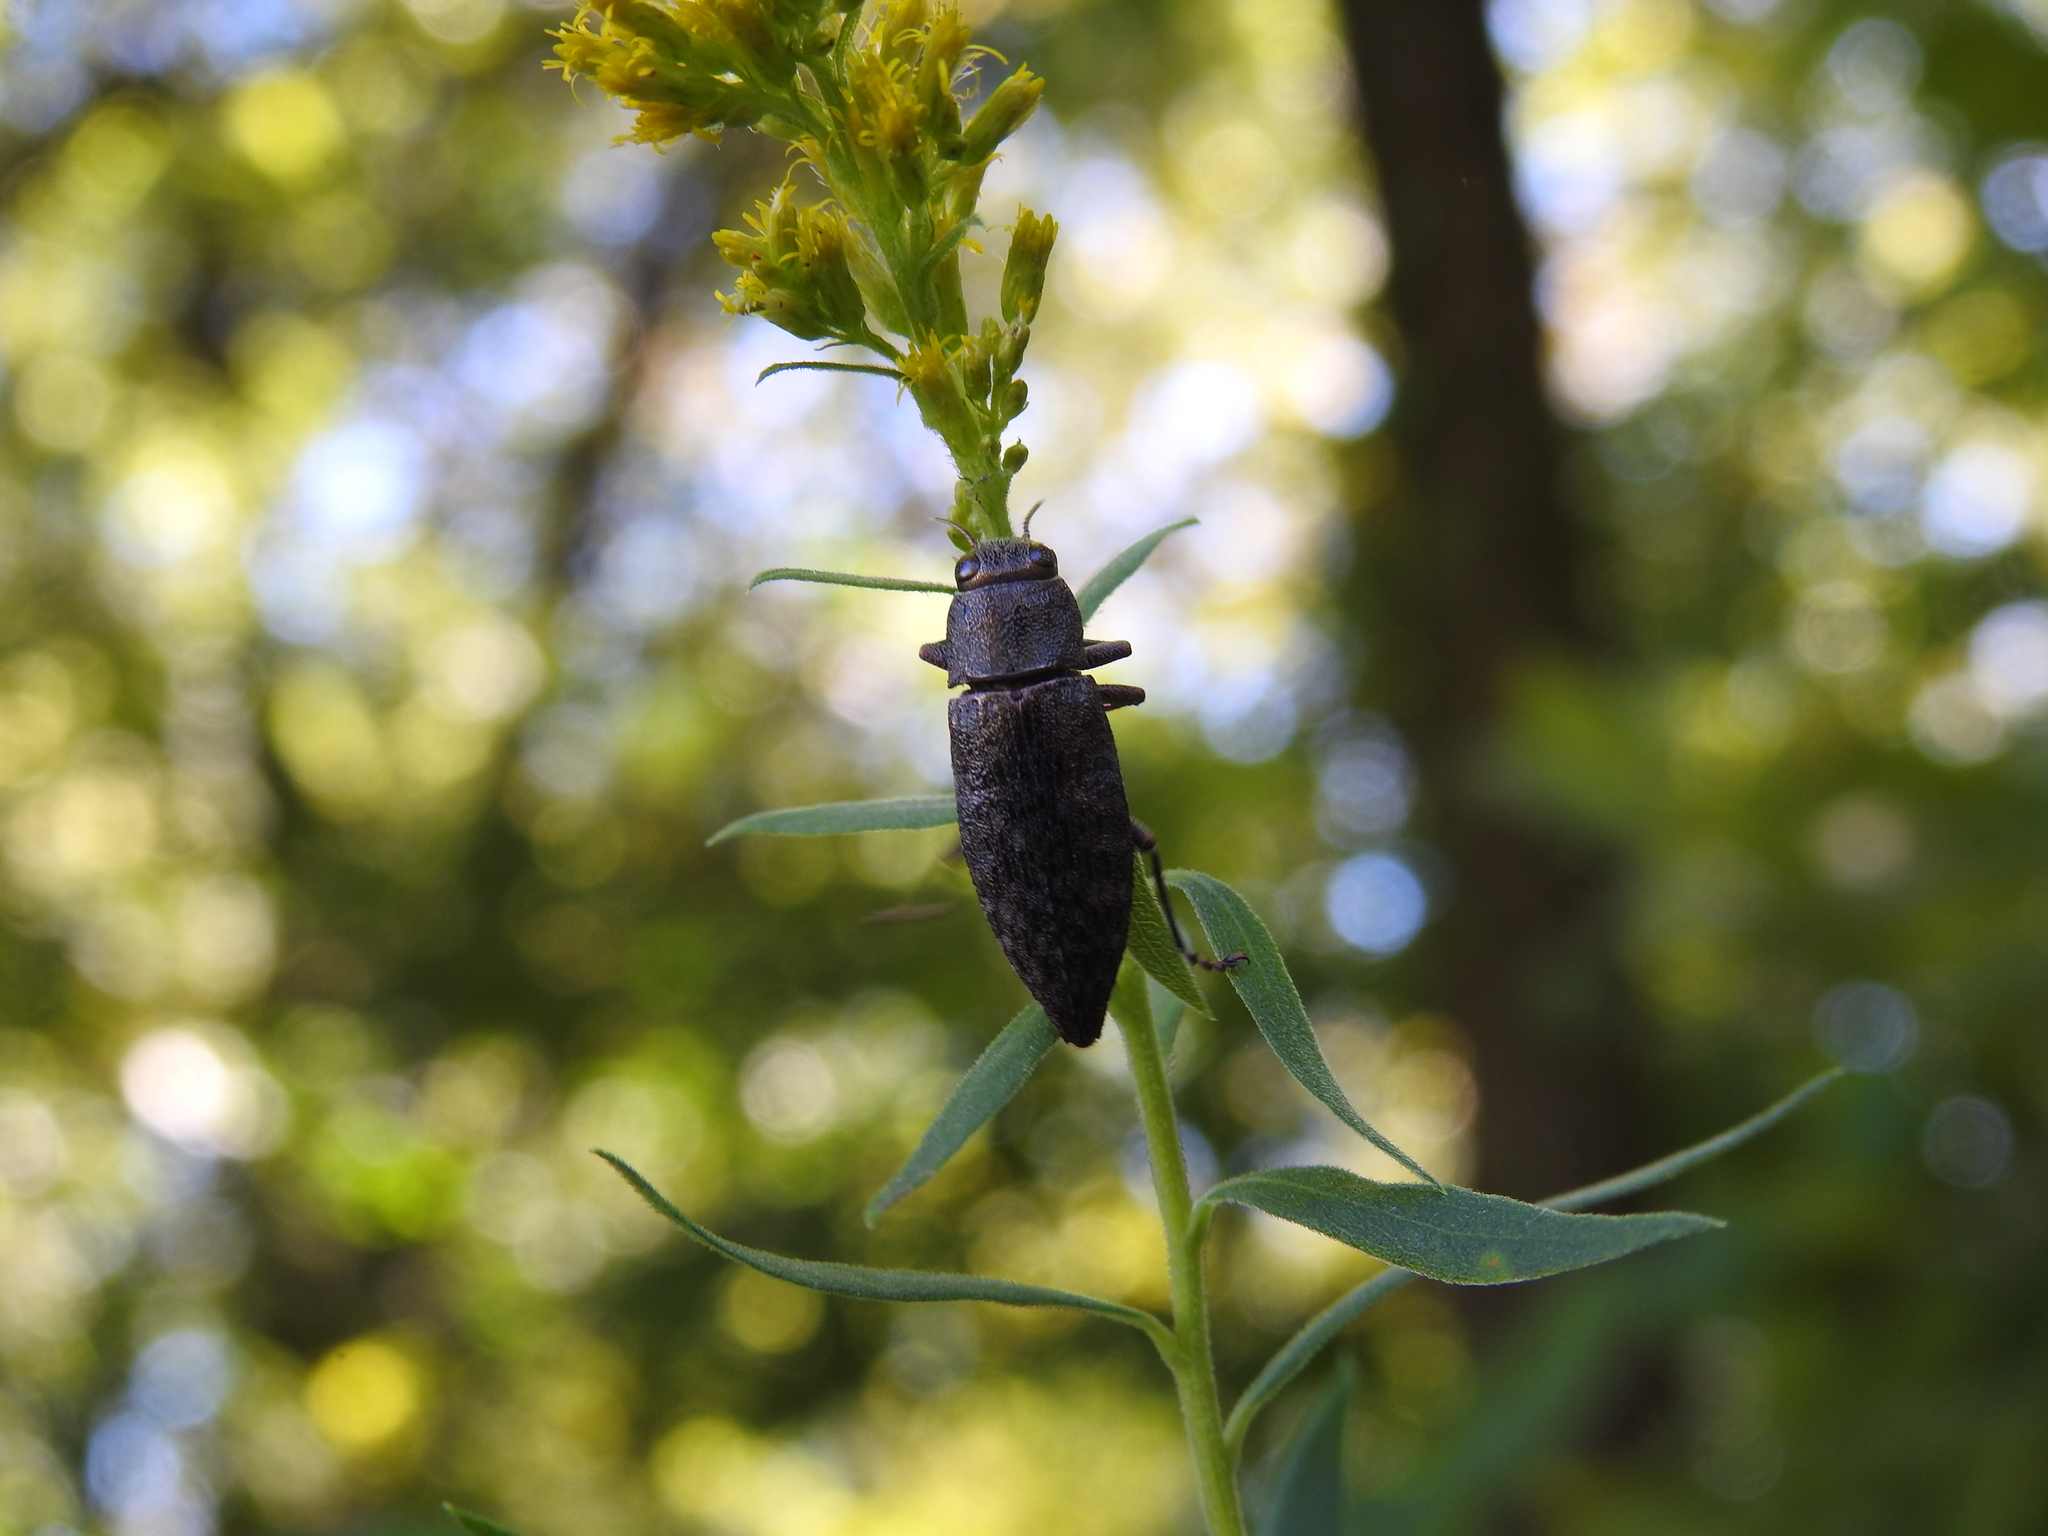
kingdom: Animalia
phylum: Arthropoda
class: Insecta
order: Coleoptera
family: Buprestidae
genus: Dicerca
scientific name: Dicerca lurida
